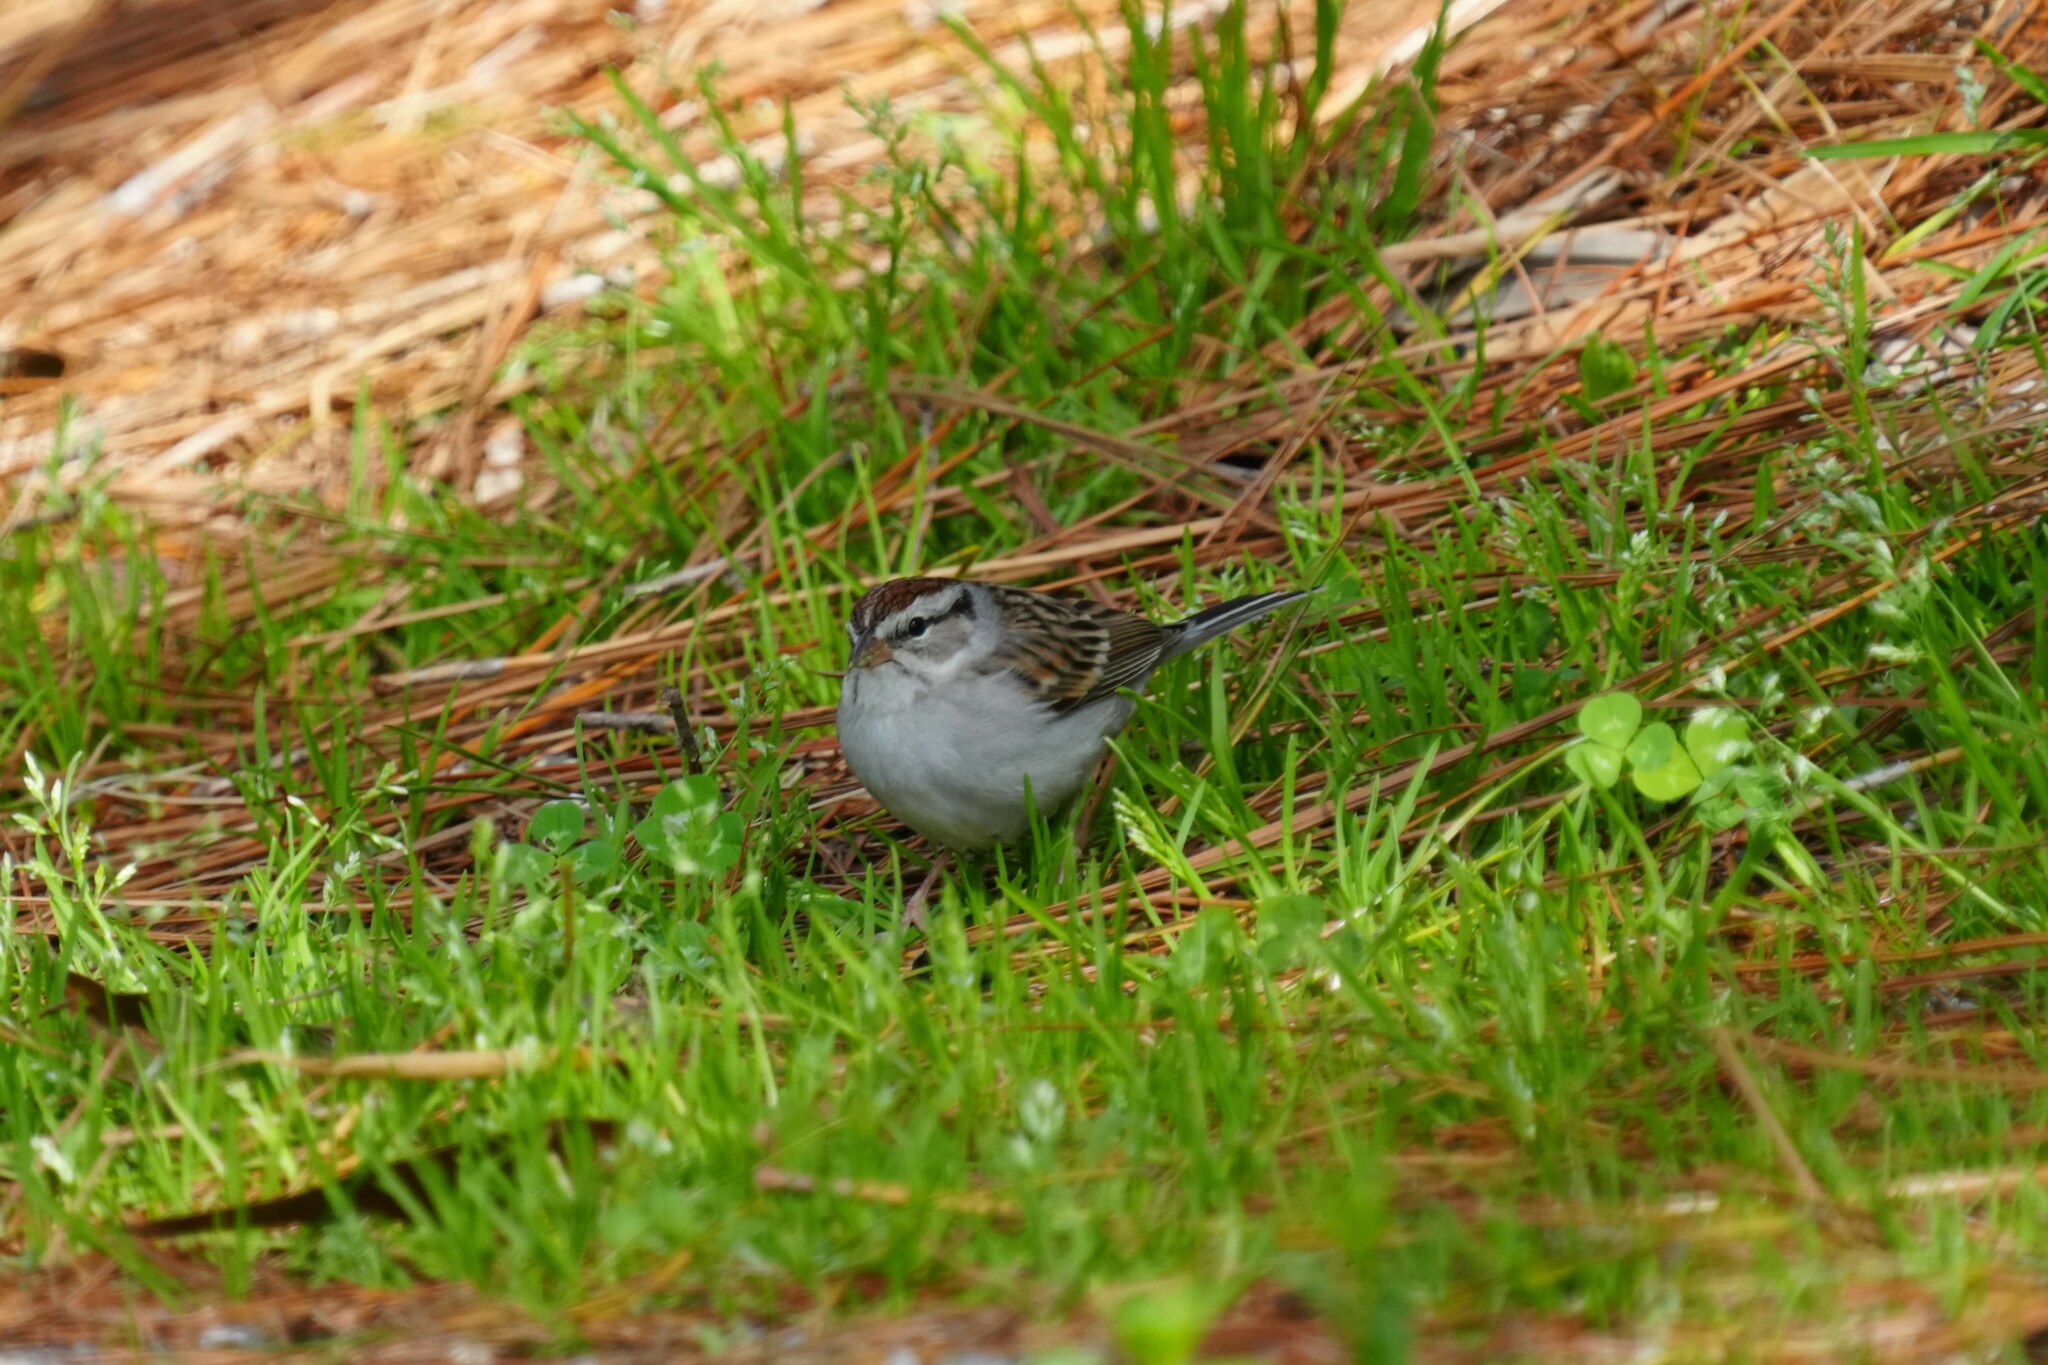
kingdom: Animalia
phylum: Chordata
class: Aves
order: Passeriformes
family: Passerellidae
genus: Spizella
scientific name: Spizella passerina
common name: Chipping sparrow
